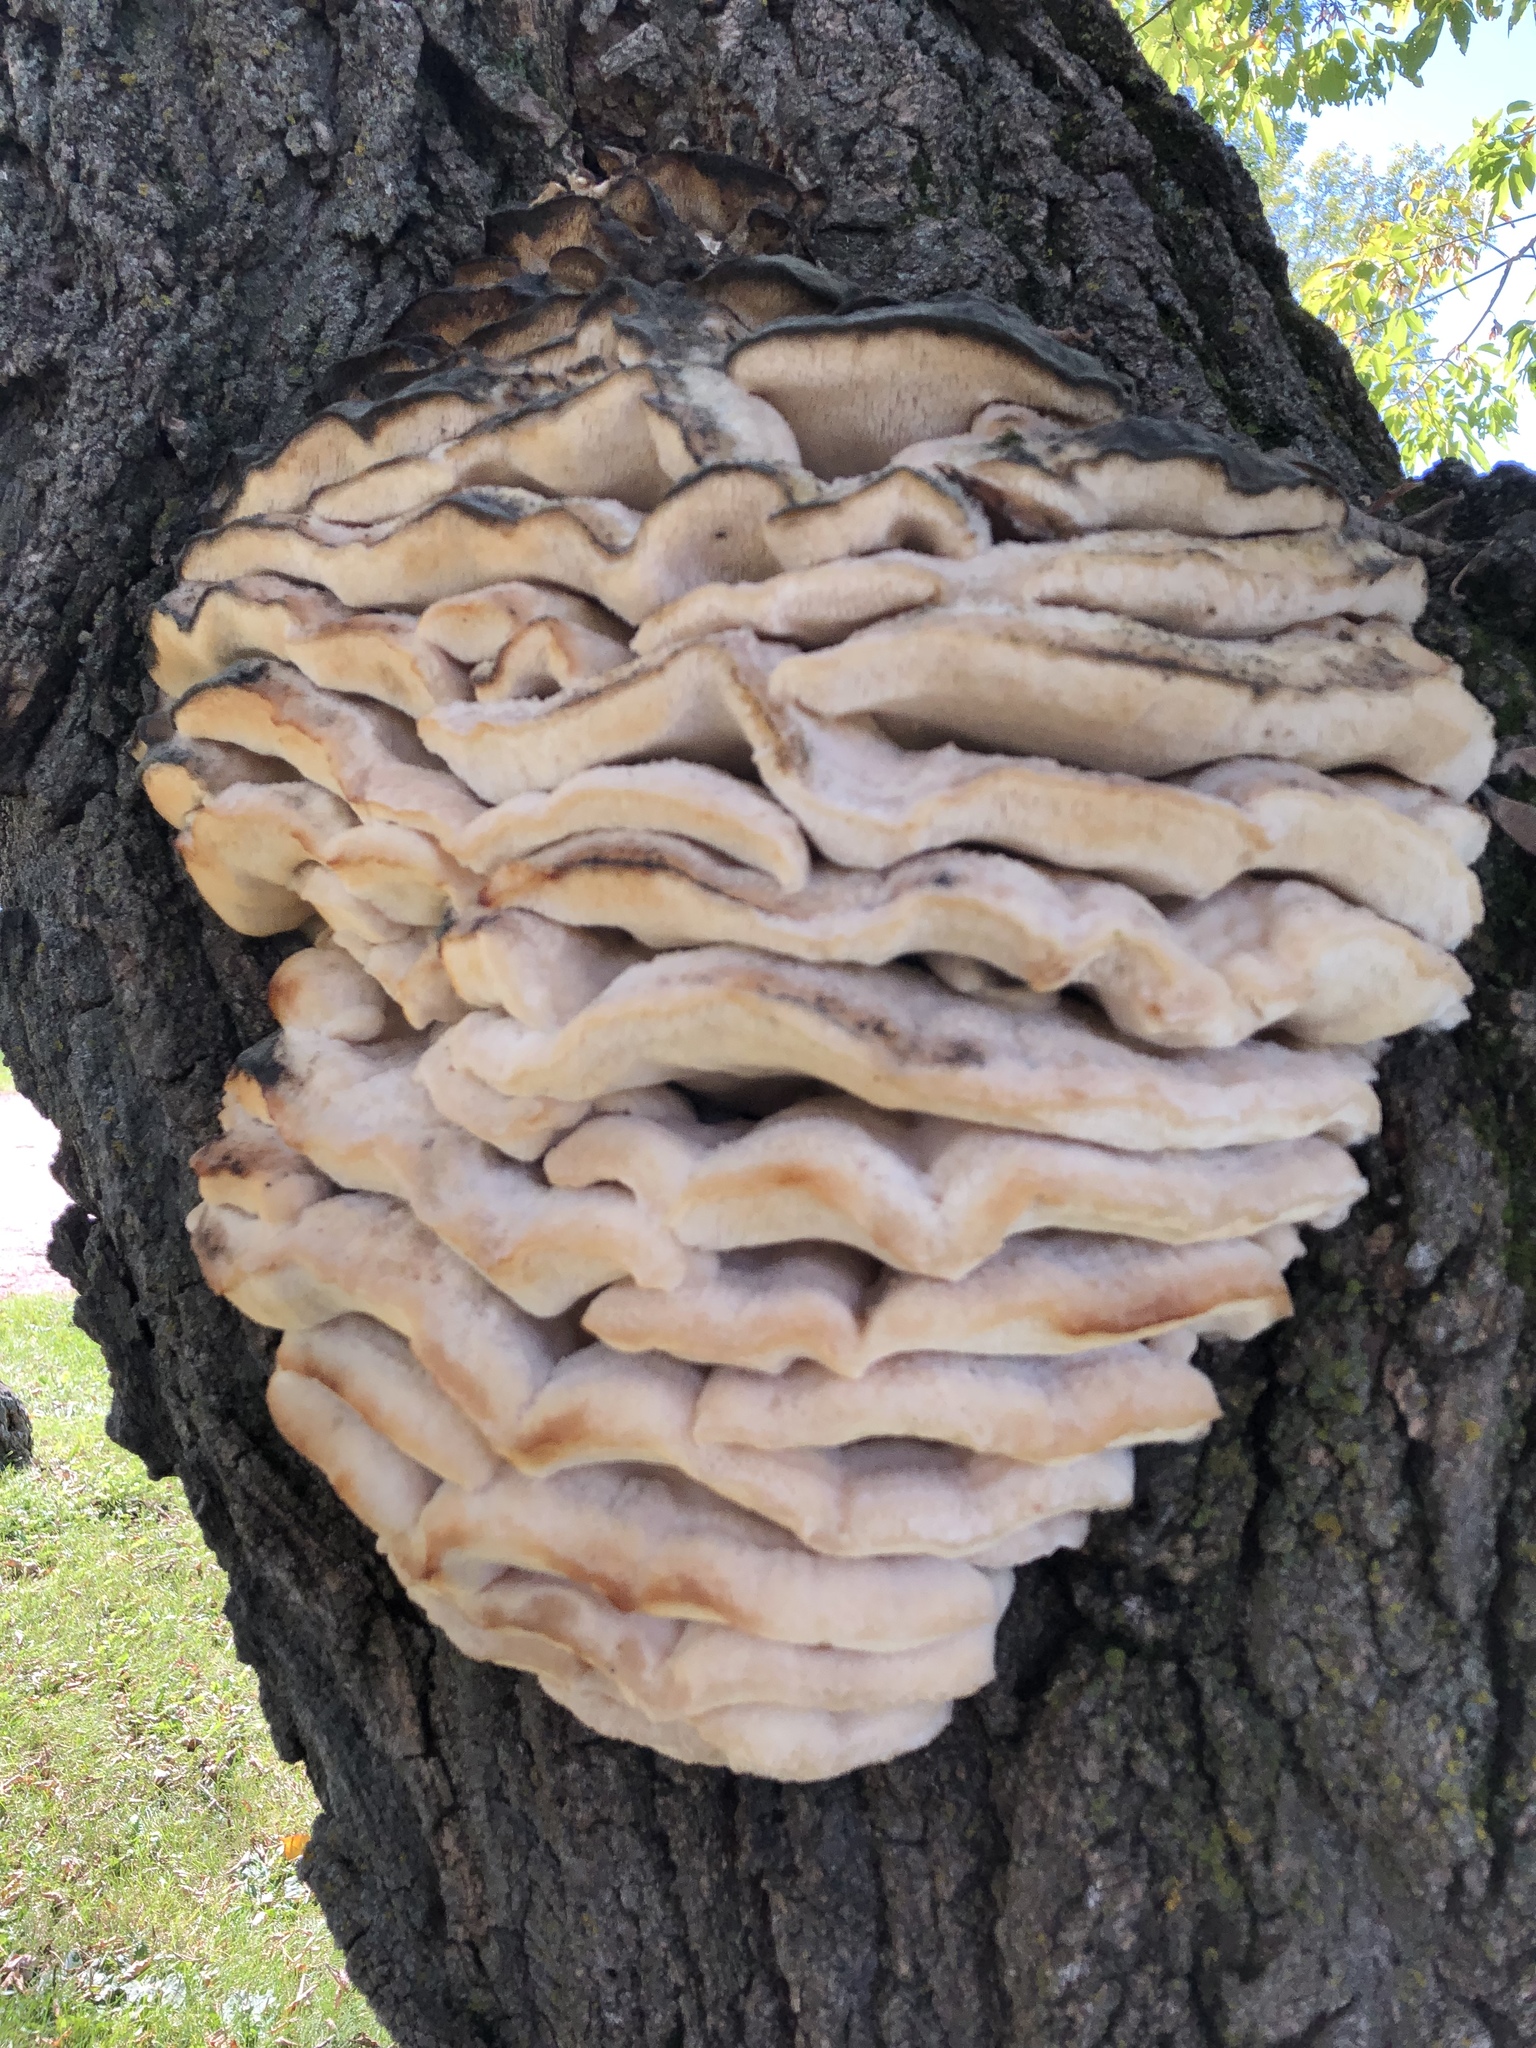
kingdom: Fungi
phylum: Basidiomycota
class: Agaricomycetes
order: Polyporales
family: Meruliaceae
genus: Climacodon
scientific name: Climacodon septentrionalis
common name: Northern tooth
